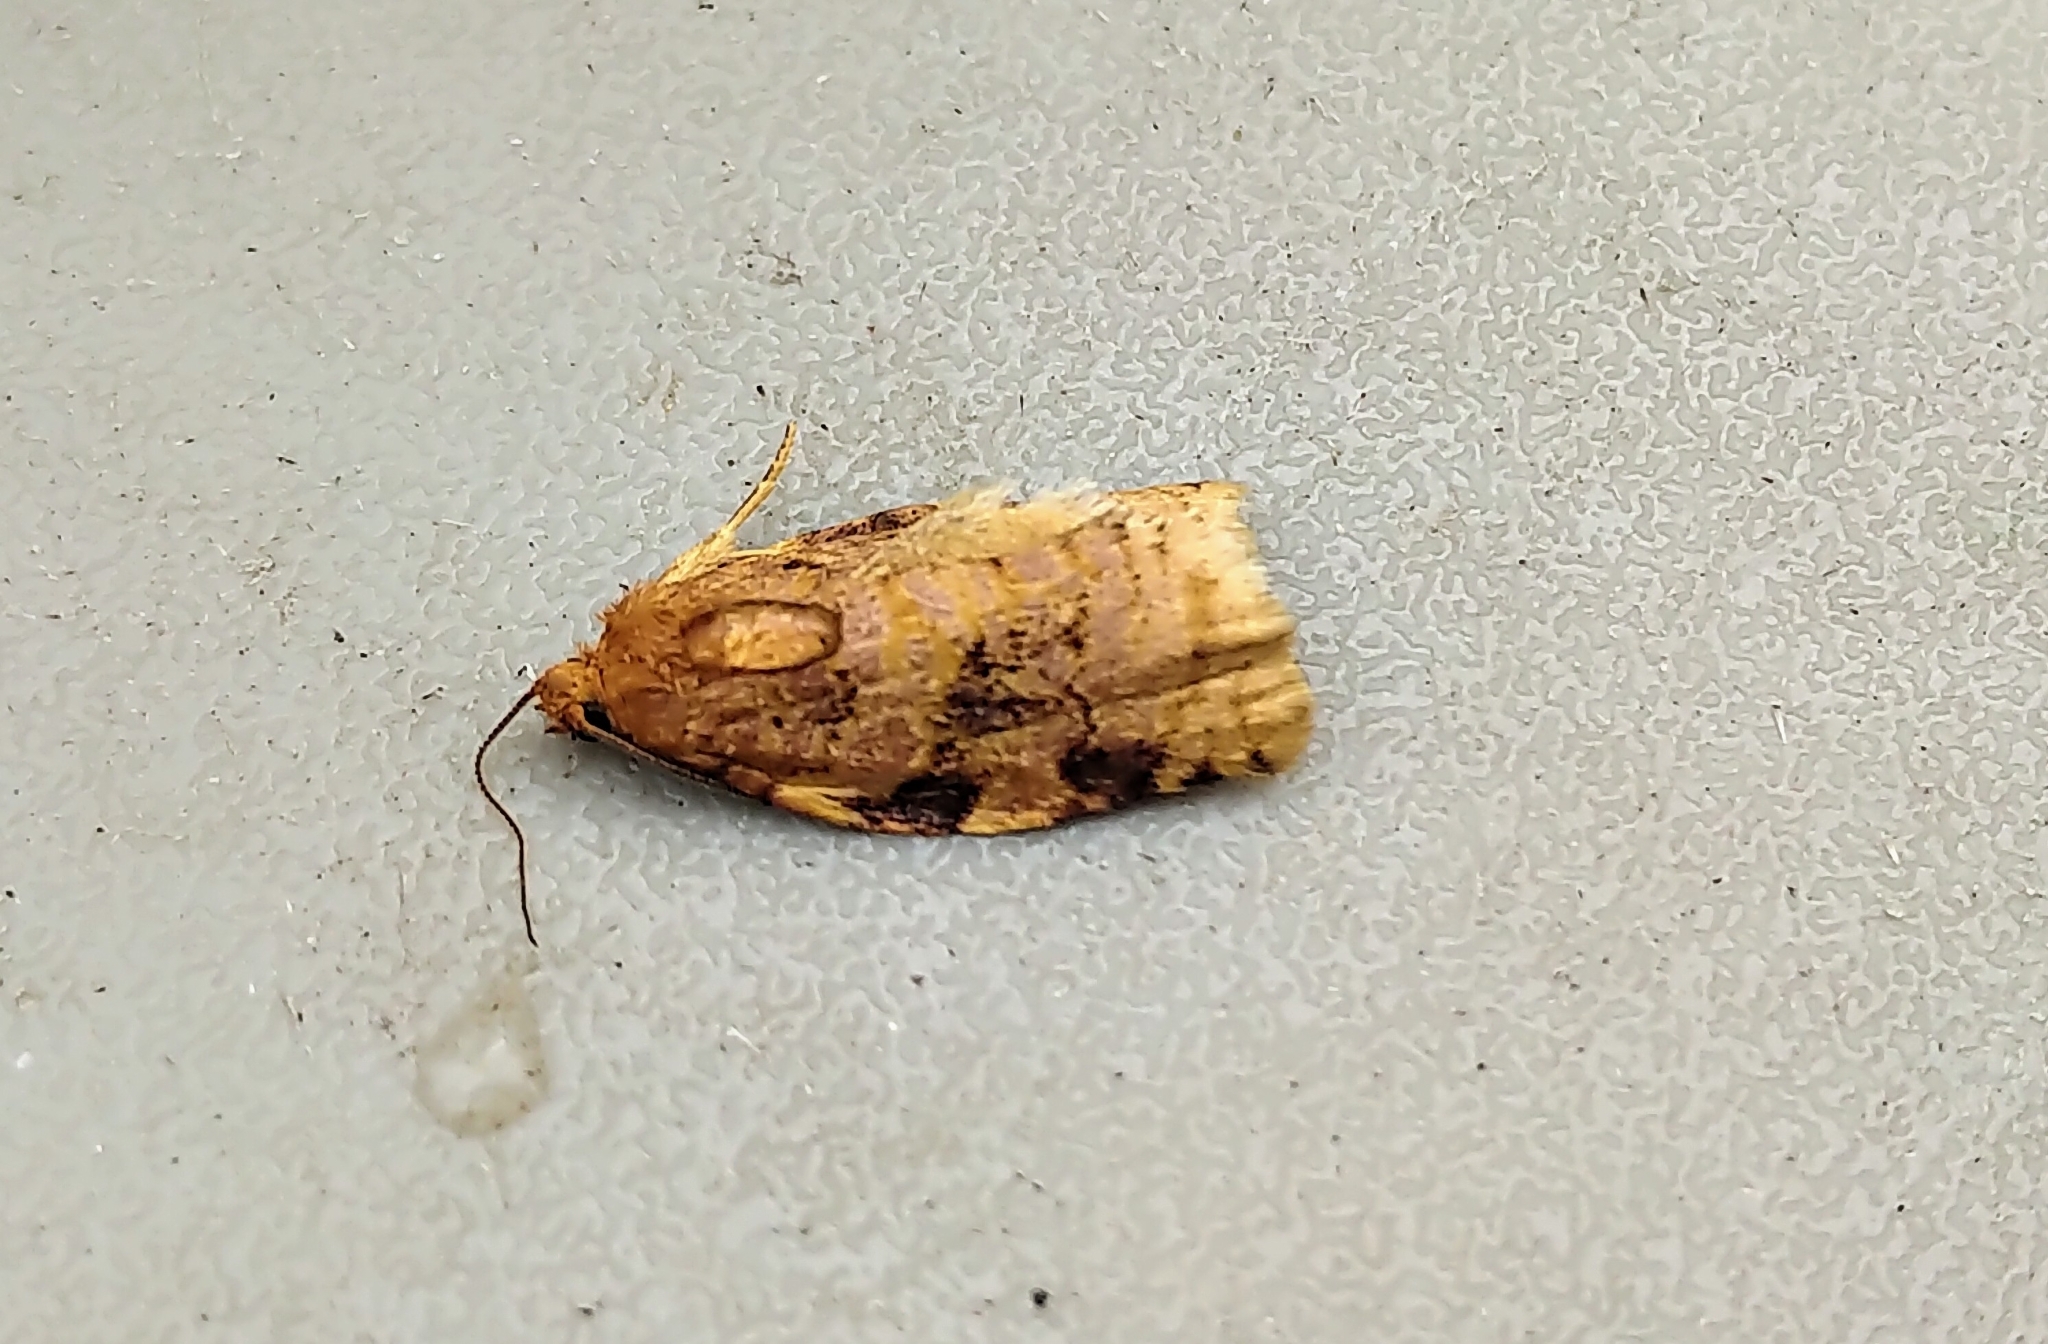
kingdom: Animalia
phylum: Arthropoda
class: Insecta
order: Lepidoptera
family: Tortricidae
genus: Archips
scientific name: Archips cerasivorana
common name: Uglynest caterpillar
